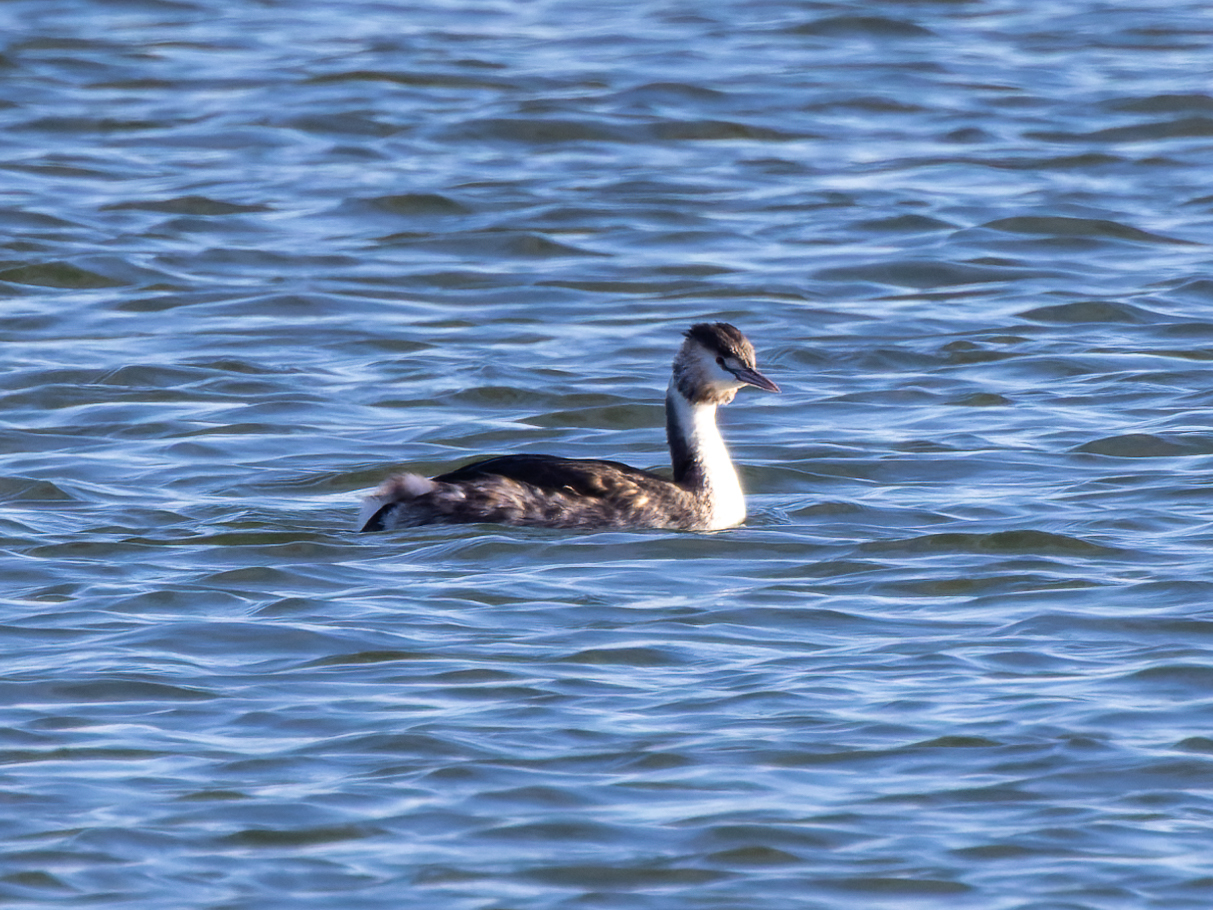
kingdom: Animalia
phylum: Chordata
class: Aves
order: Podicipediformes
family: Podicipedidae
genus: Podiceps
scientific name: Podiceps cristatus
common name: Great crested grebe
